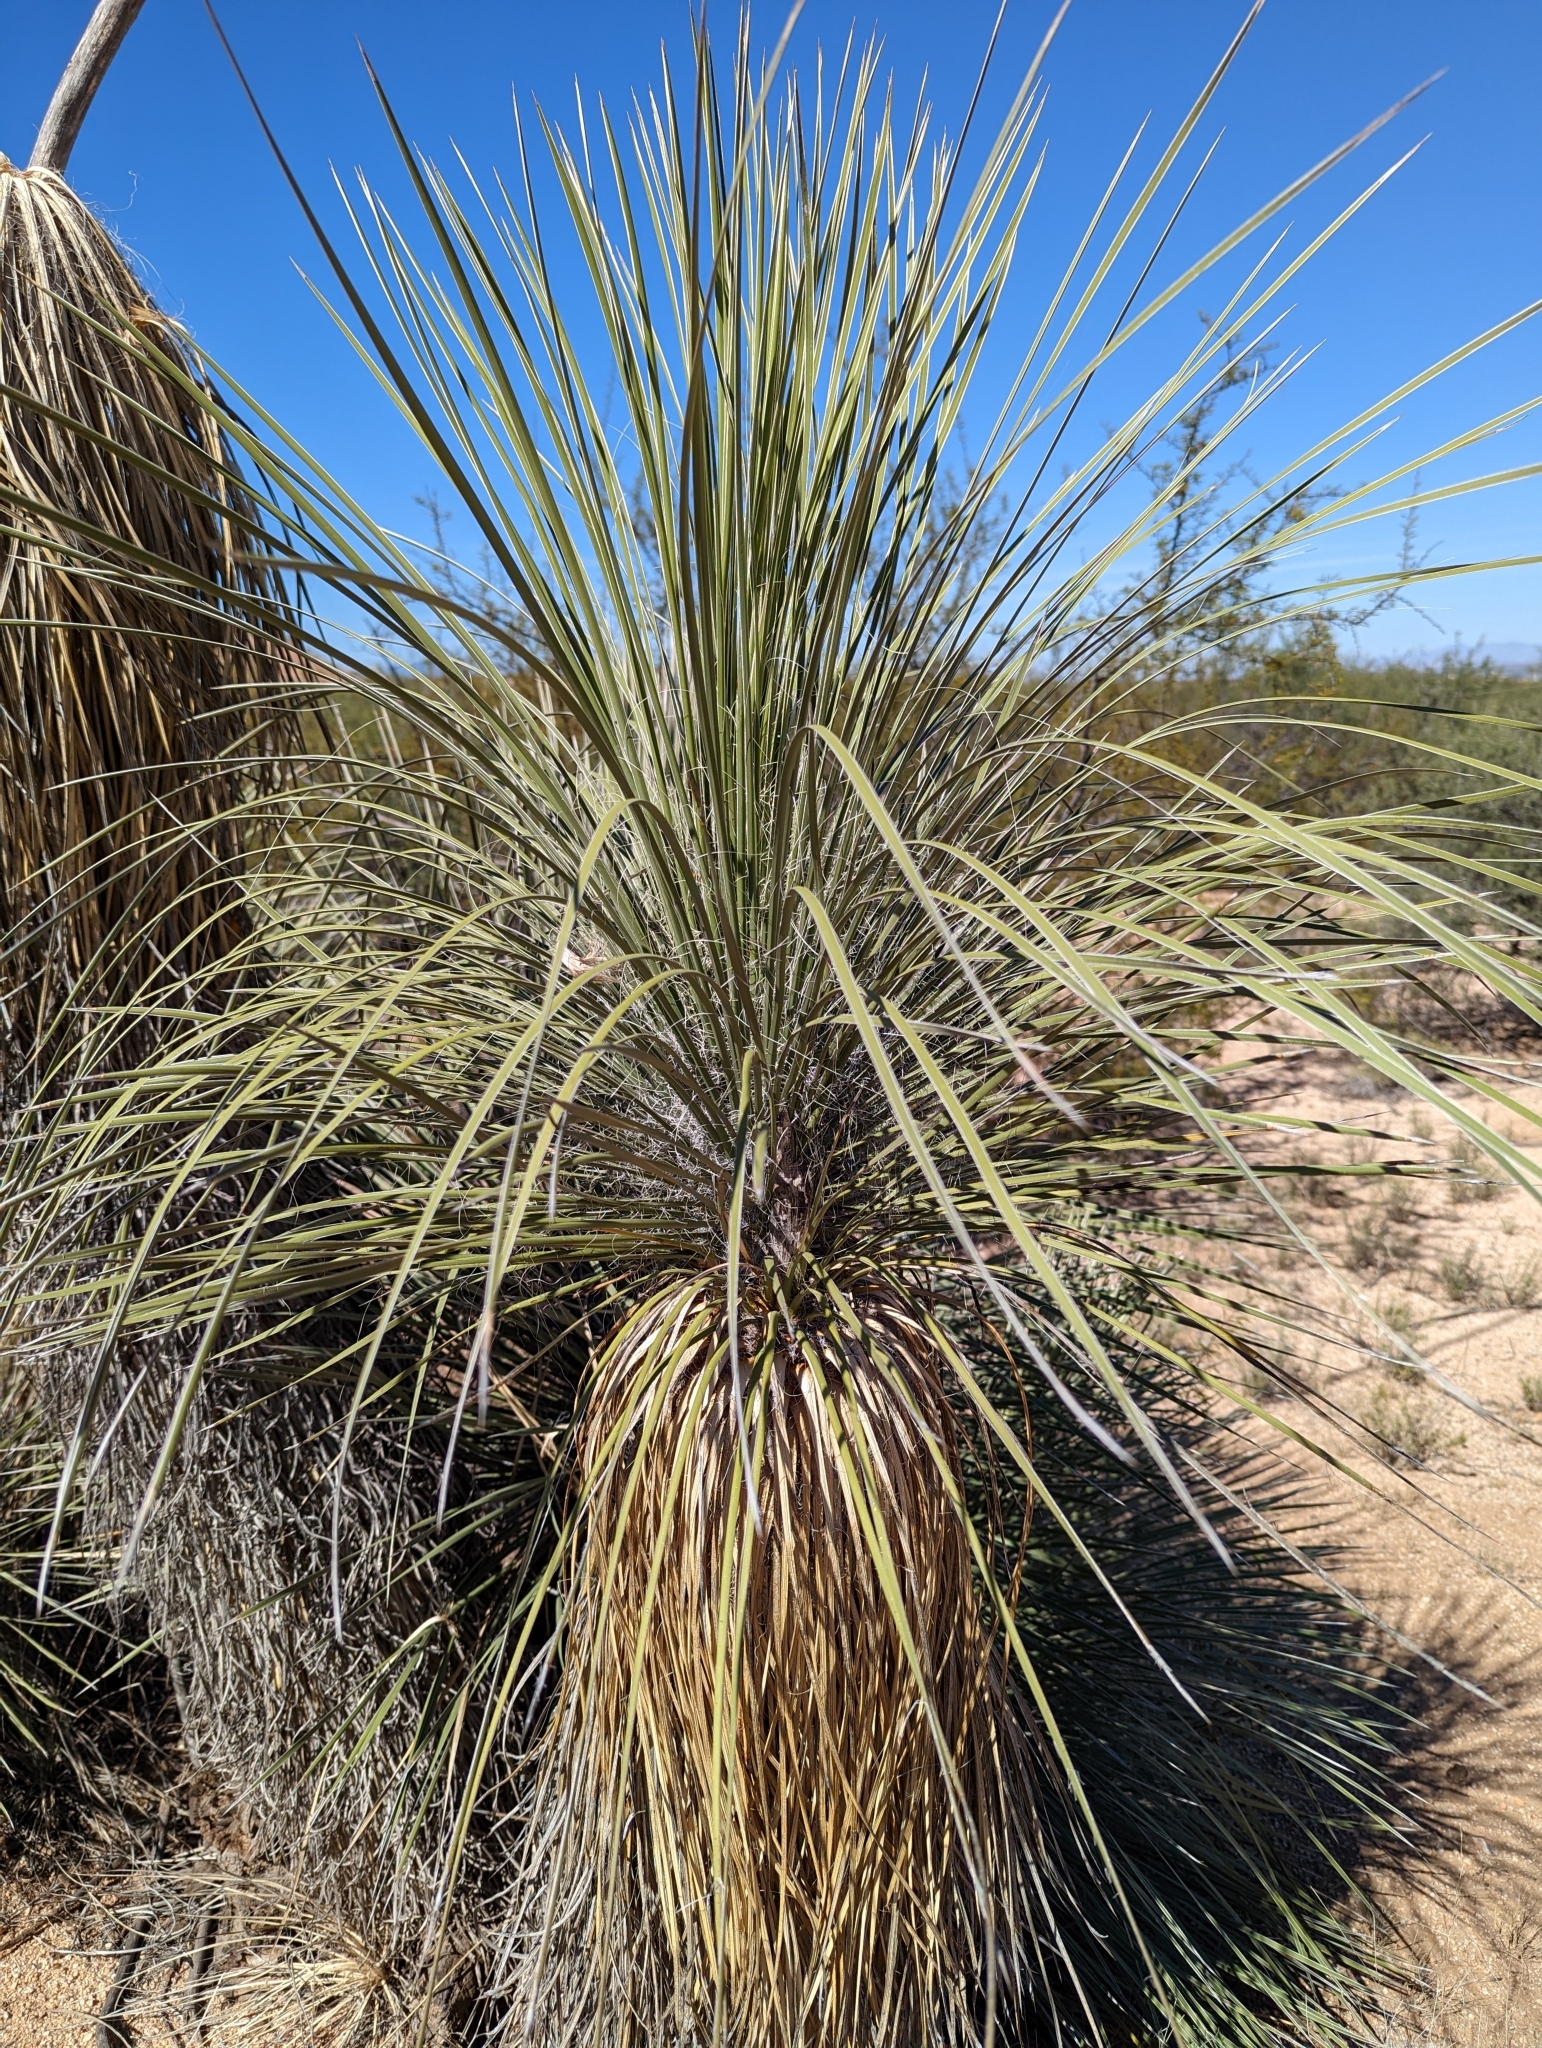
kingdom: Plantae
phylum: Tracheophyta
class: Liliopsida
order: Asparagales
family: Asparagaceae
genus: Yucca
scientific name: Yucca elata
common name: Palmella
